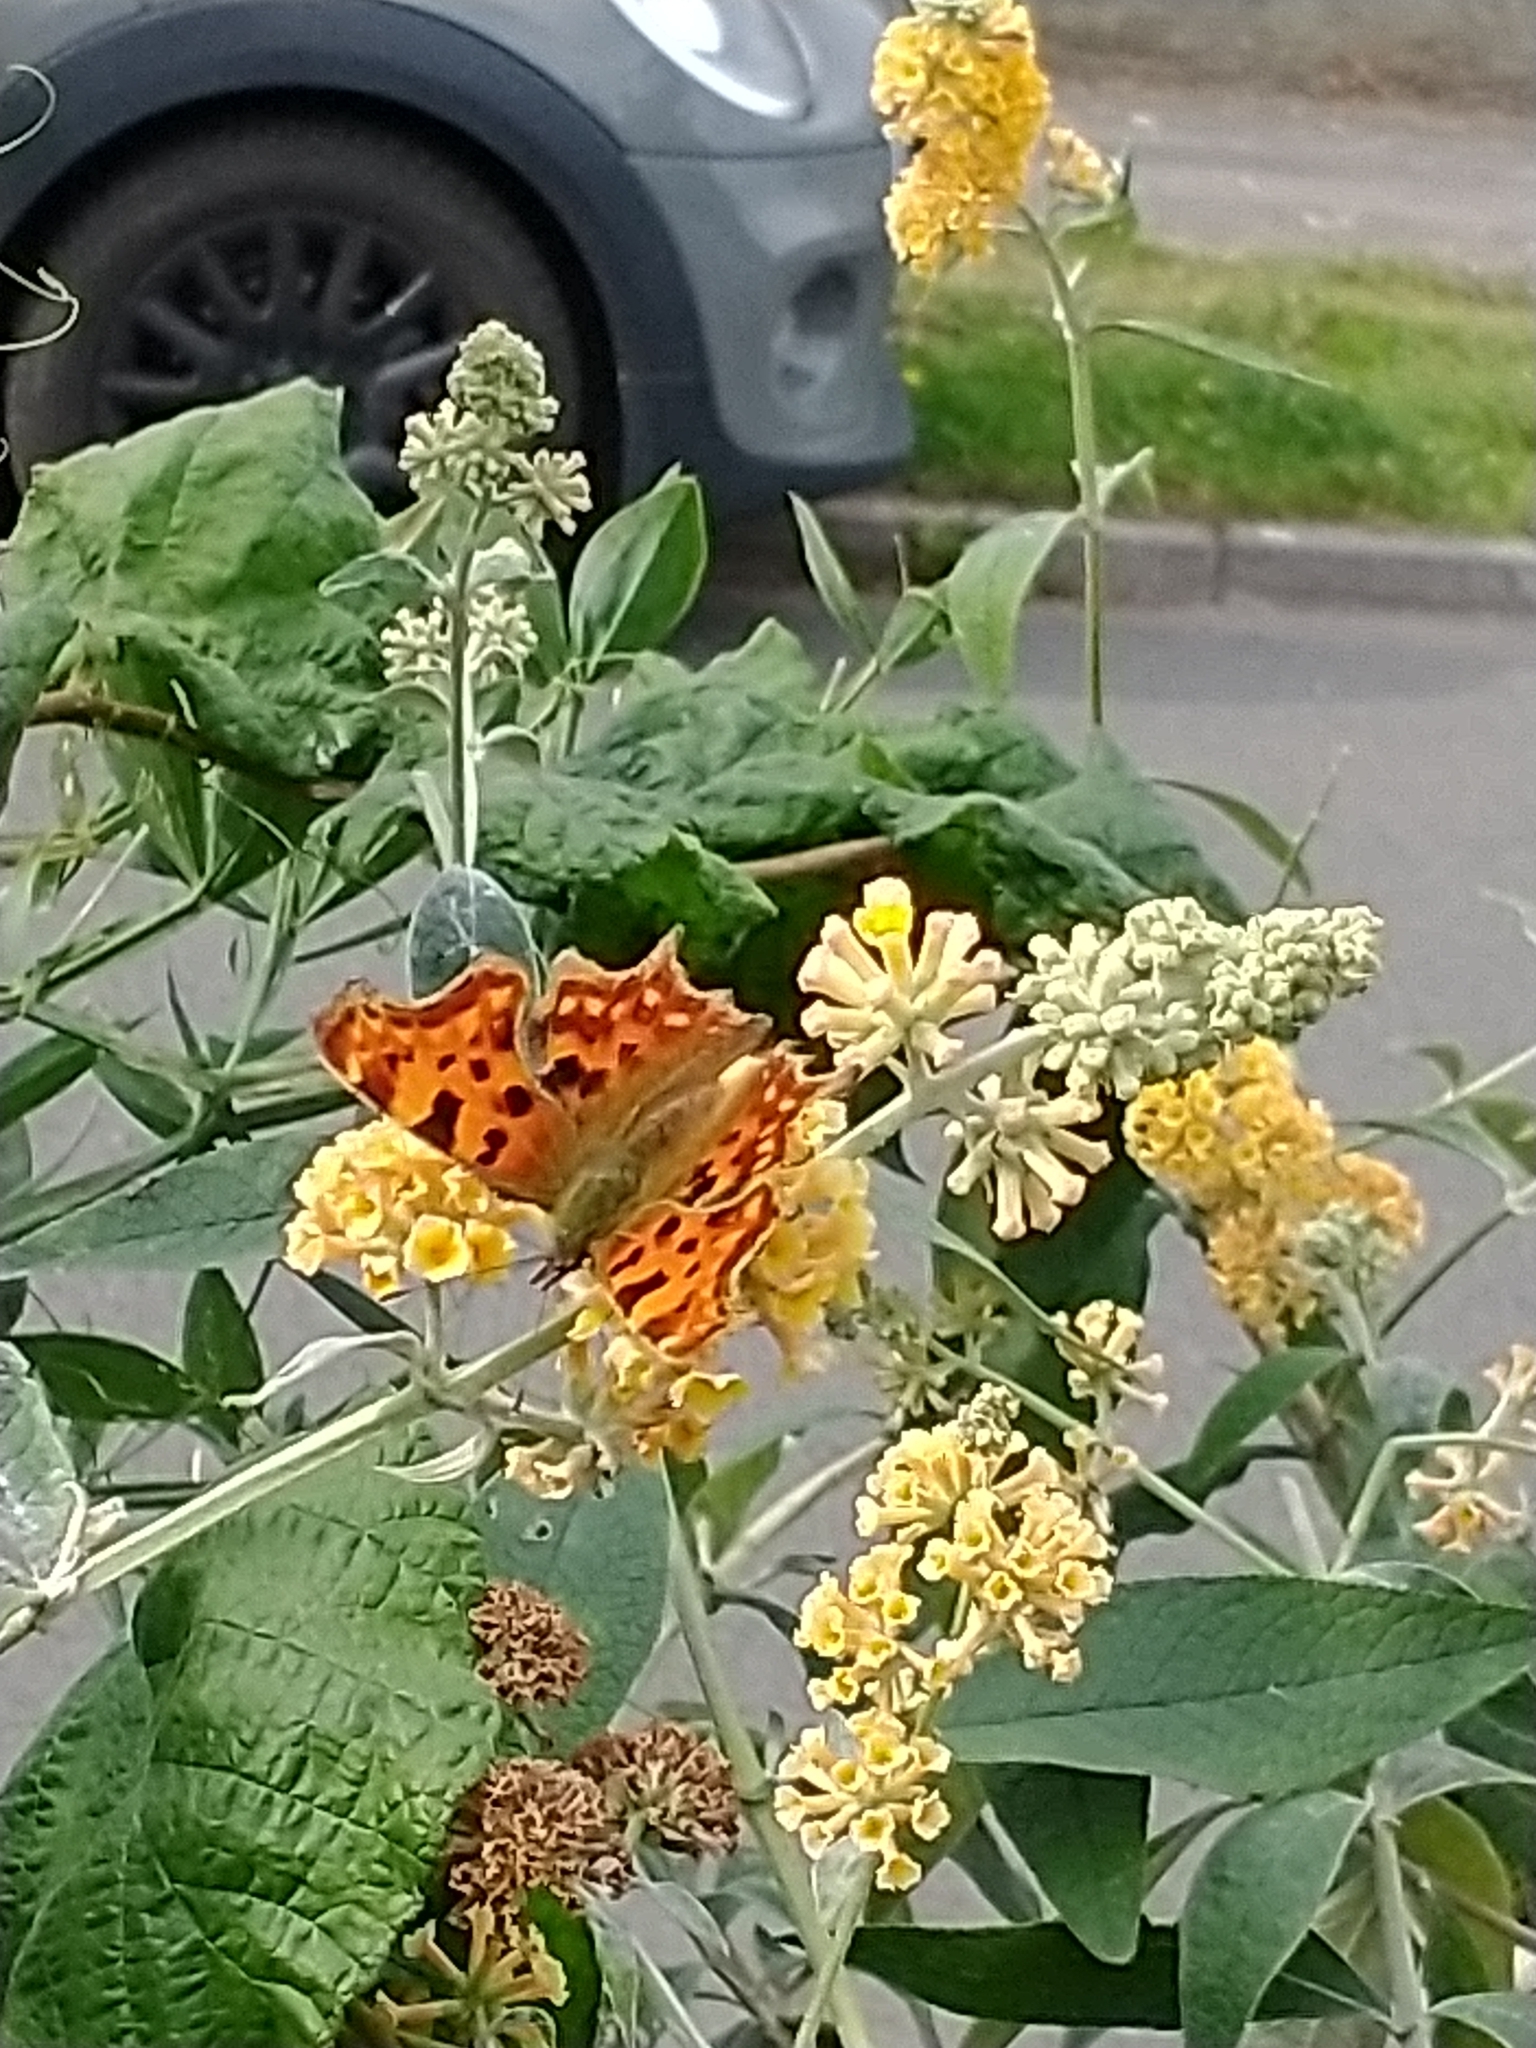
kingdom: Animalia
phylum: Arthropoda
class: Insecta
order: Lepidoptera
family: Nymphalidae
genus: Polygonia
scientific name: Polygonia c-album
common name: Comma
